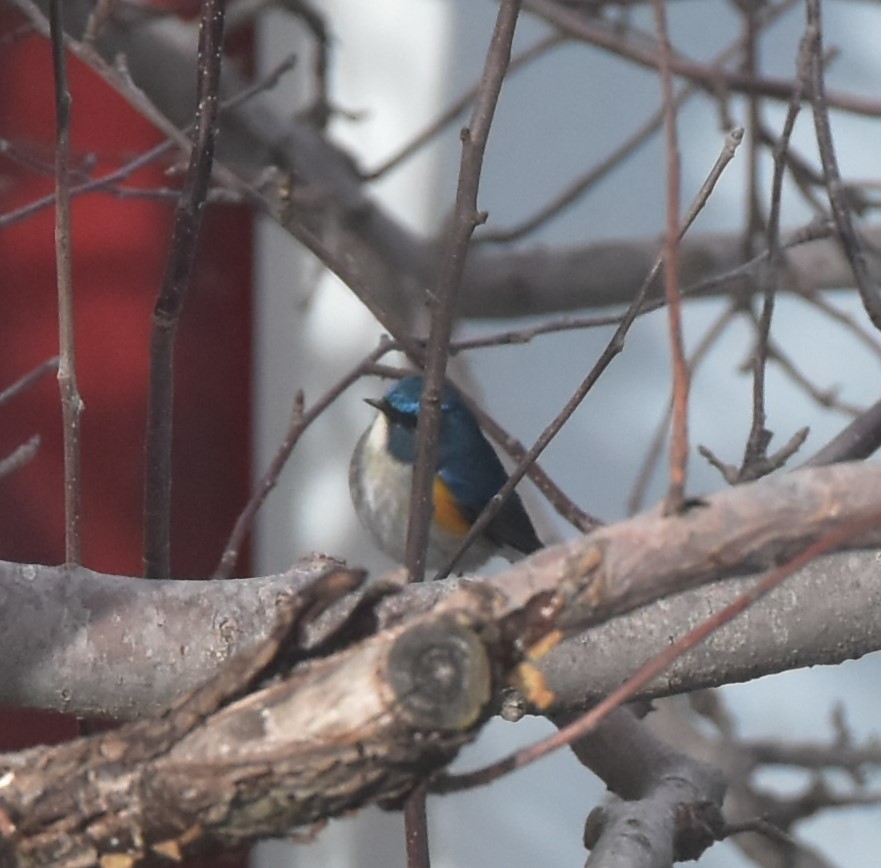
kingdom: Animalia
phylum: Chordata
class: Aves
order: Passeriformes
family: Muscicapidae
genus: Tarsiger
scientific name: Tarsiger rufilatus
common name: Himalayan bluetail
